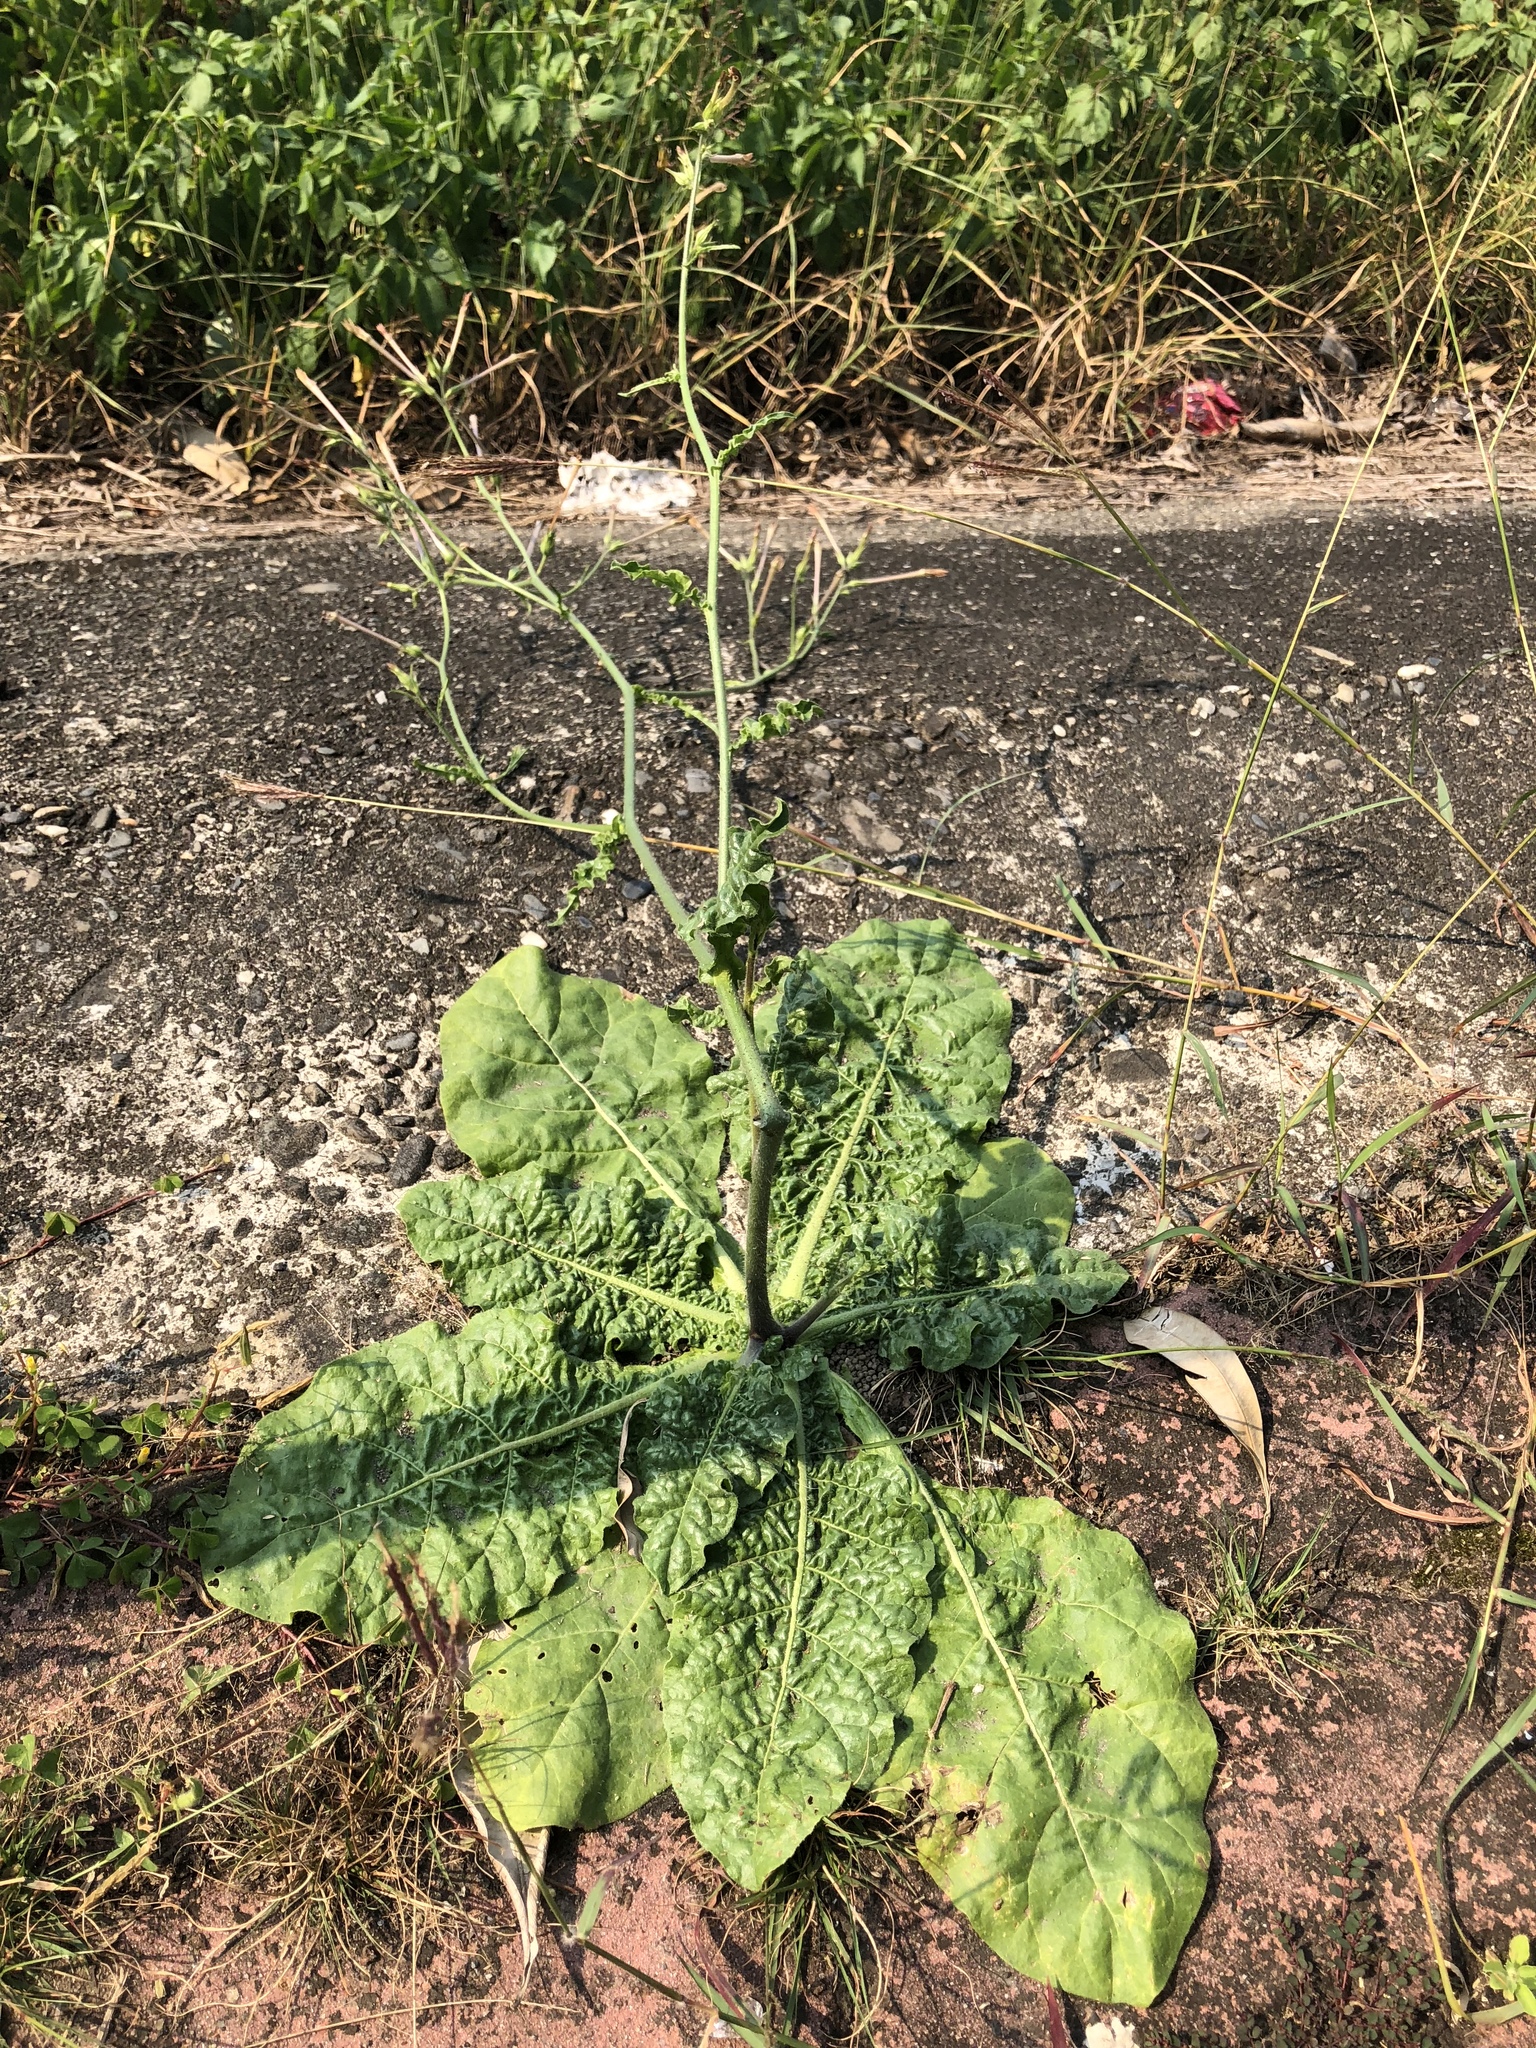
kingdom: Plantae
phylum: Tracheophyta
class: Magnoliopsida
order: Solanales
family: Solanaceae
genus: Nicotiana
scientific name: Nicotiana plumbaginifolia
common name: Tex-mex tobacco
